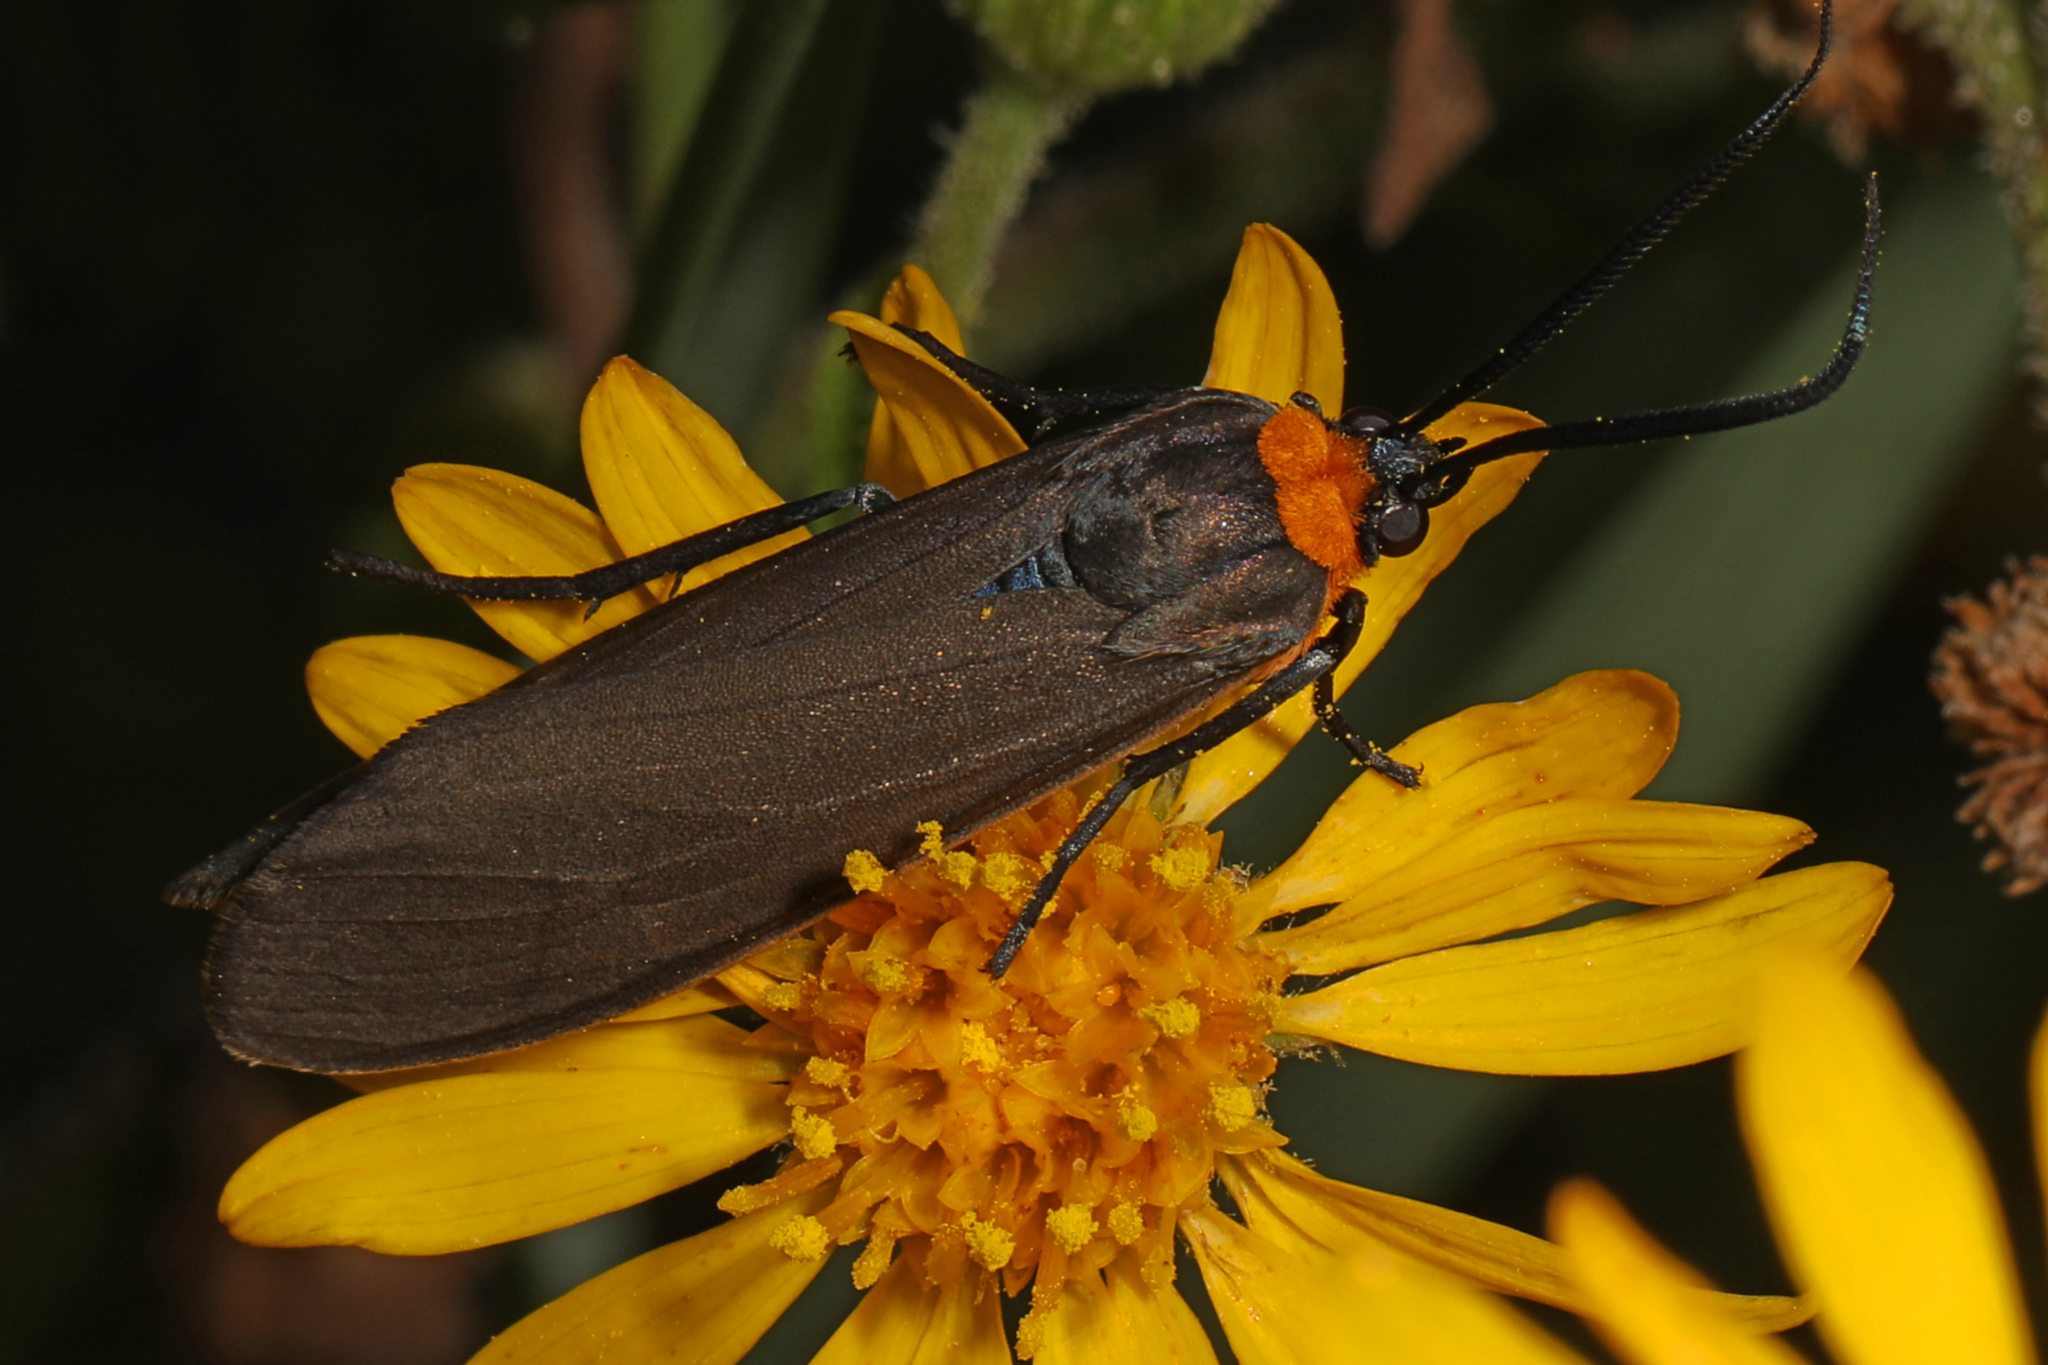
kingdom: Animalia
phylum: Arthropoda
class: Insecta
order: Lepidoptera
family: Erebidae
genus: Cisseps
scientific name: Cisseps fulvicollis
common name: Yellow-collared scape moth
